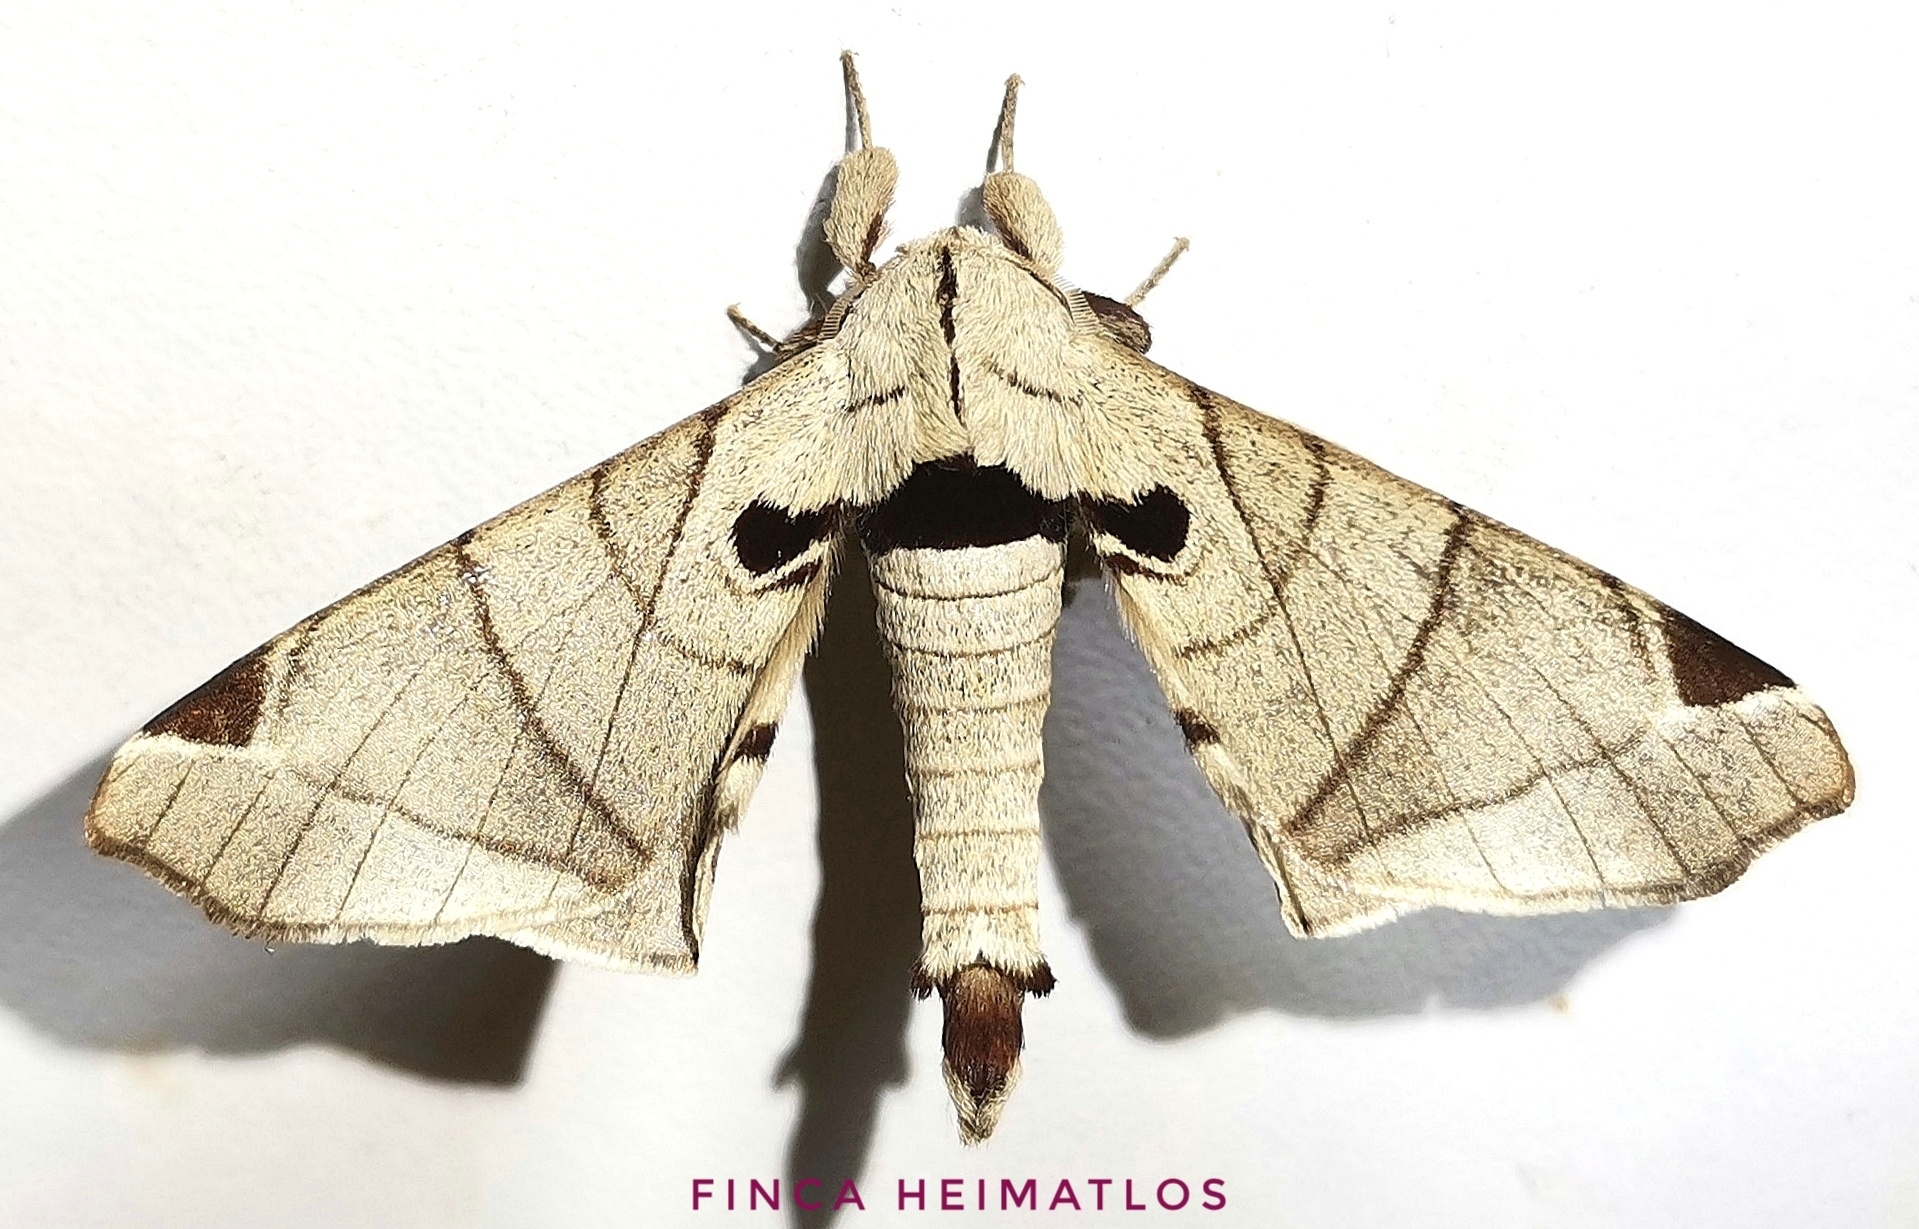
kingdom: Animalia
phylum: Arthropoda
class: Insecta
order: Lepidoptera
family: Apatelodidae
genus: Hygrochroa
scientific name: Hygrochroa Apatelodes pandara
